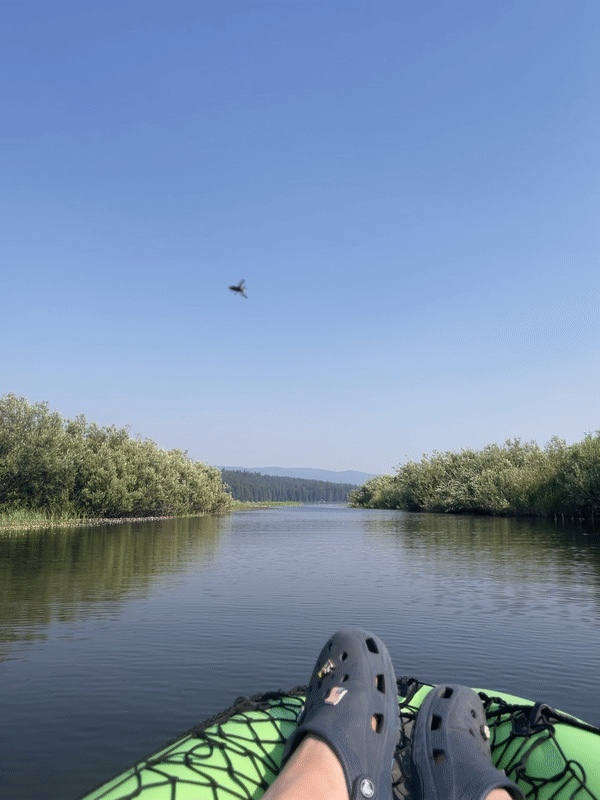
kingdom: Animalia
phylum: Arthropoda
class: Insecta
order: Hymenoptera
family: Vespidae
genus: Dolichovespula
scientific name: Dolichovespula maculata
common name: Bald-faced hornet
